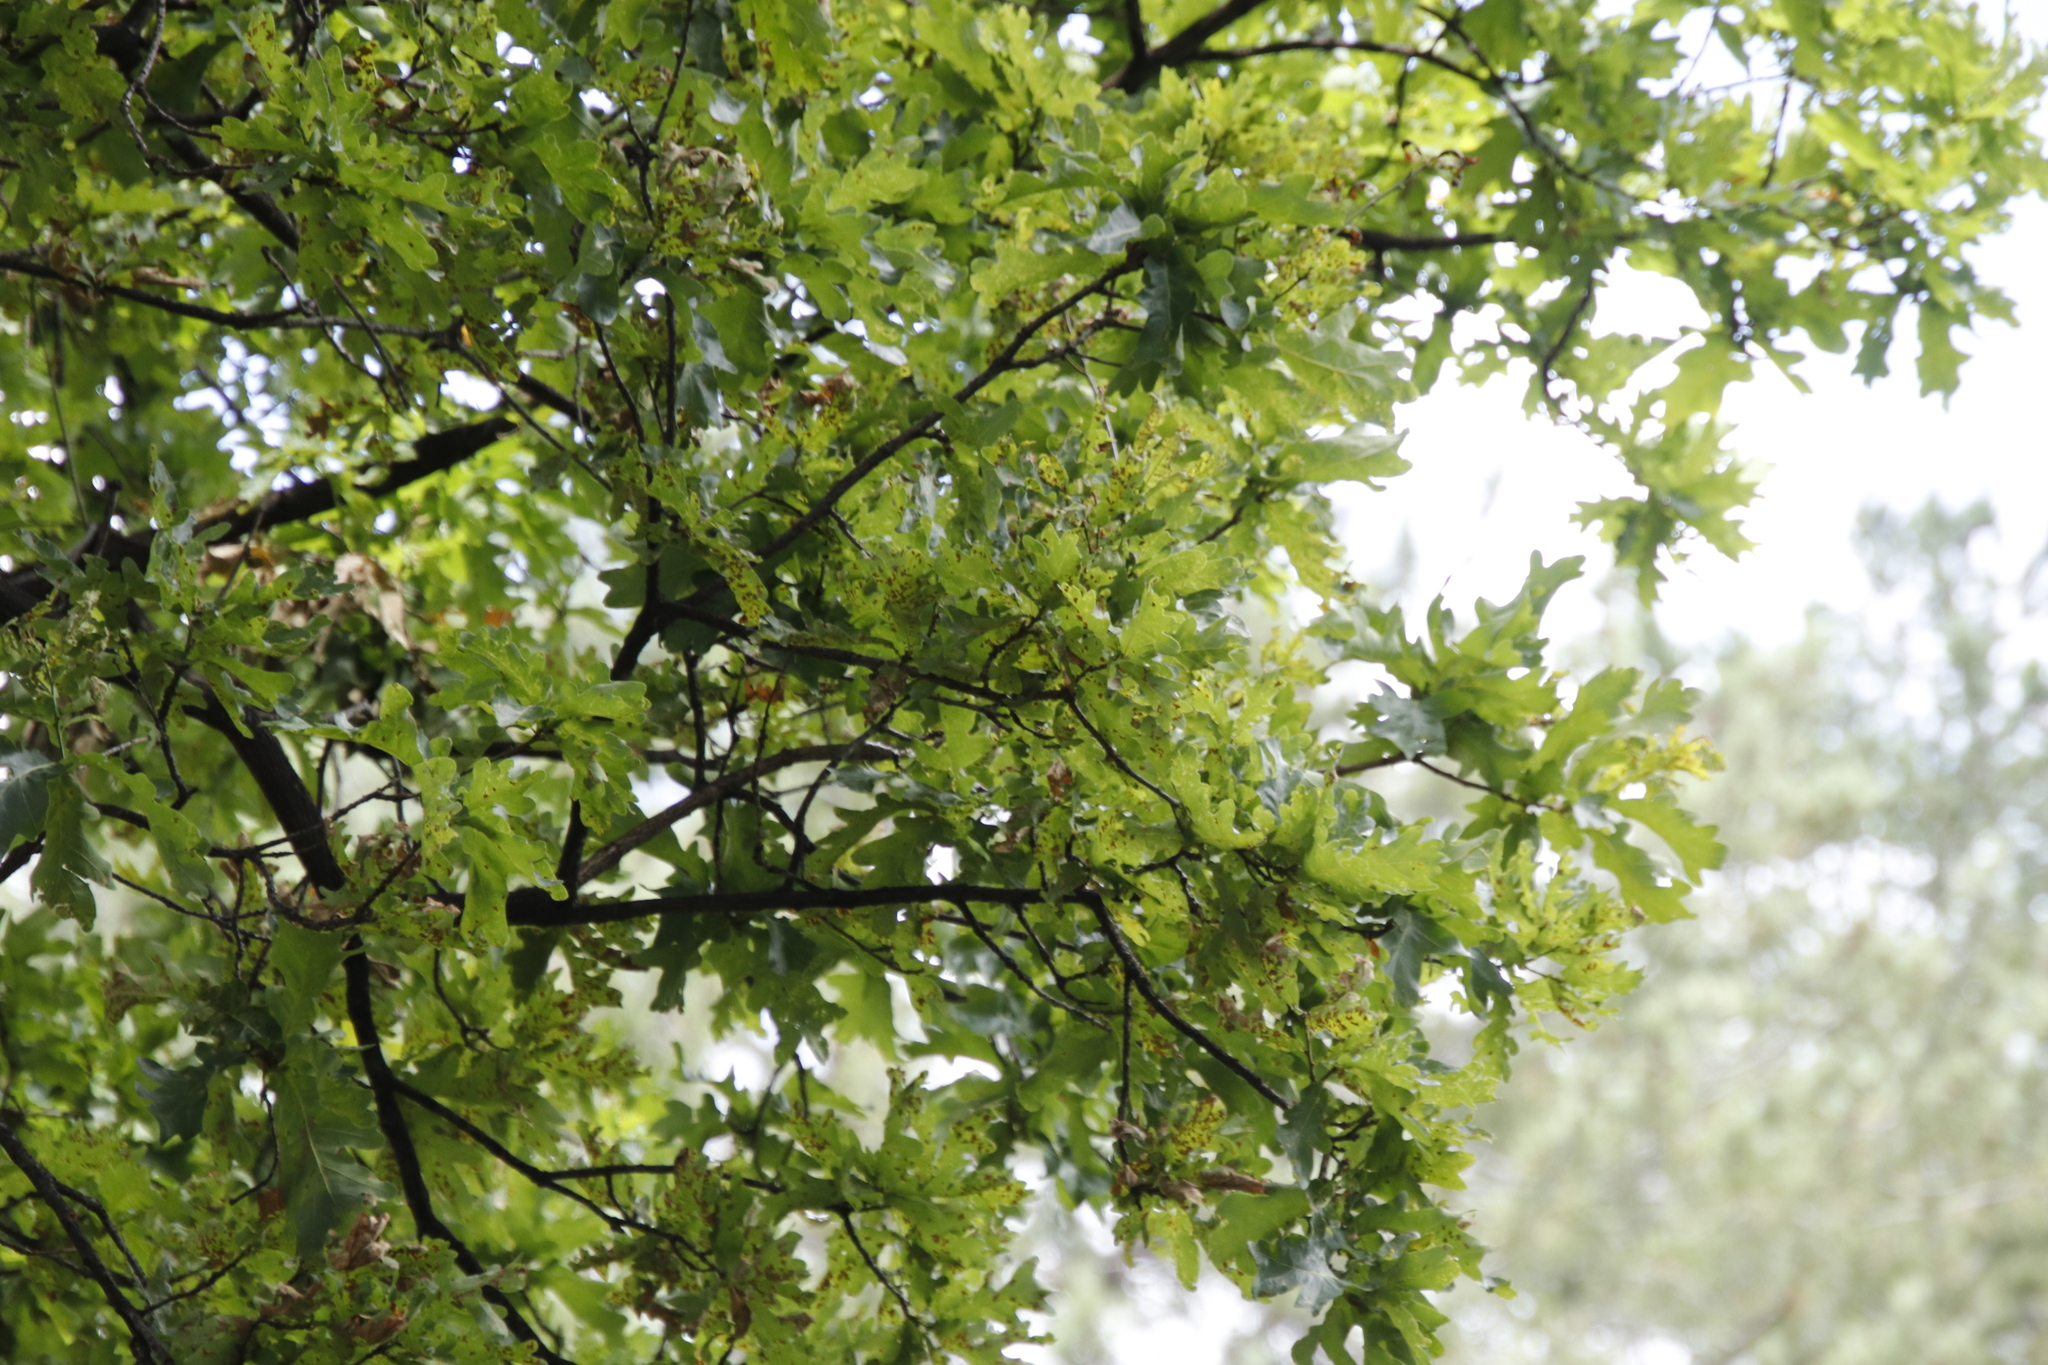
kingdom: Plantae
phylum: Tracheophyta
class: Magnoliopsida
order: Fagales
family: Fagaceae
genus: Quercus
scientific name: Quercus robur
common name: Pedunculate oak
